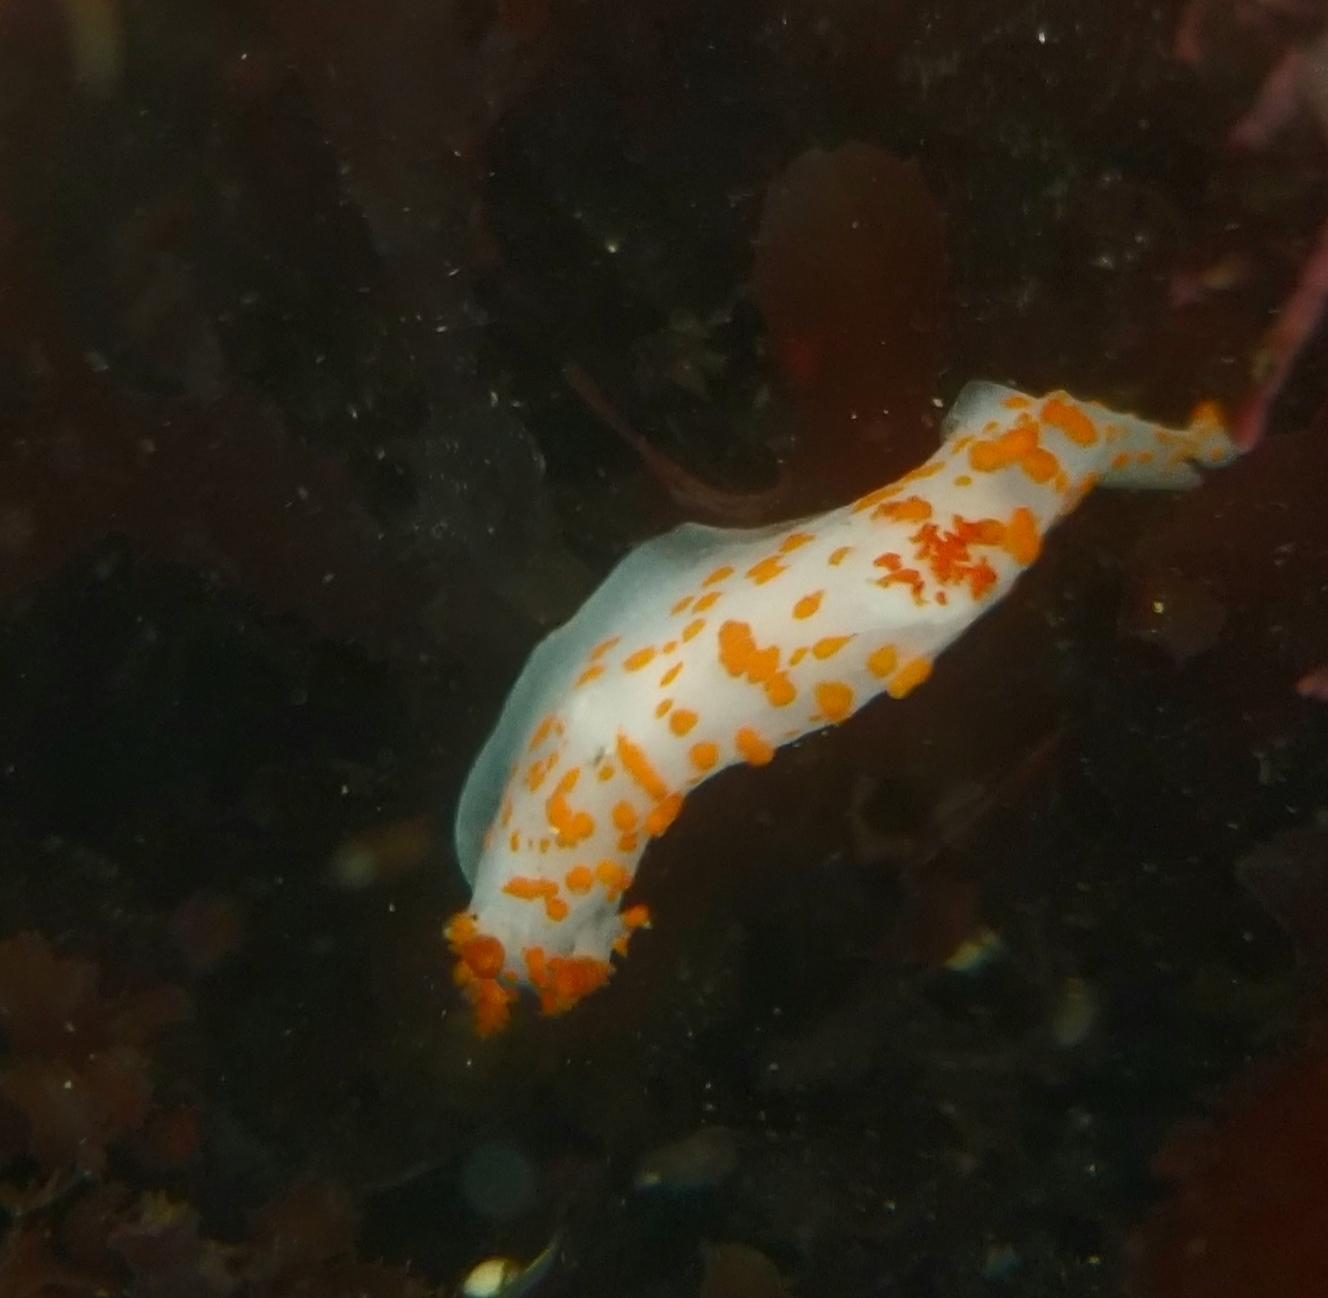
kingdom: Animalia
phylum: Mollusca
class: Gastropoda
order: Nudibranchia
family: Polyceridae
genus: Triopha
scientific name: Triopha catalinae
